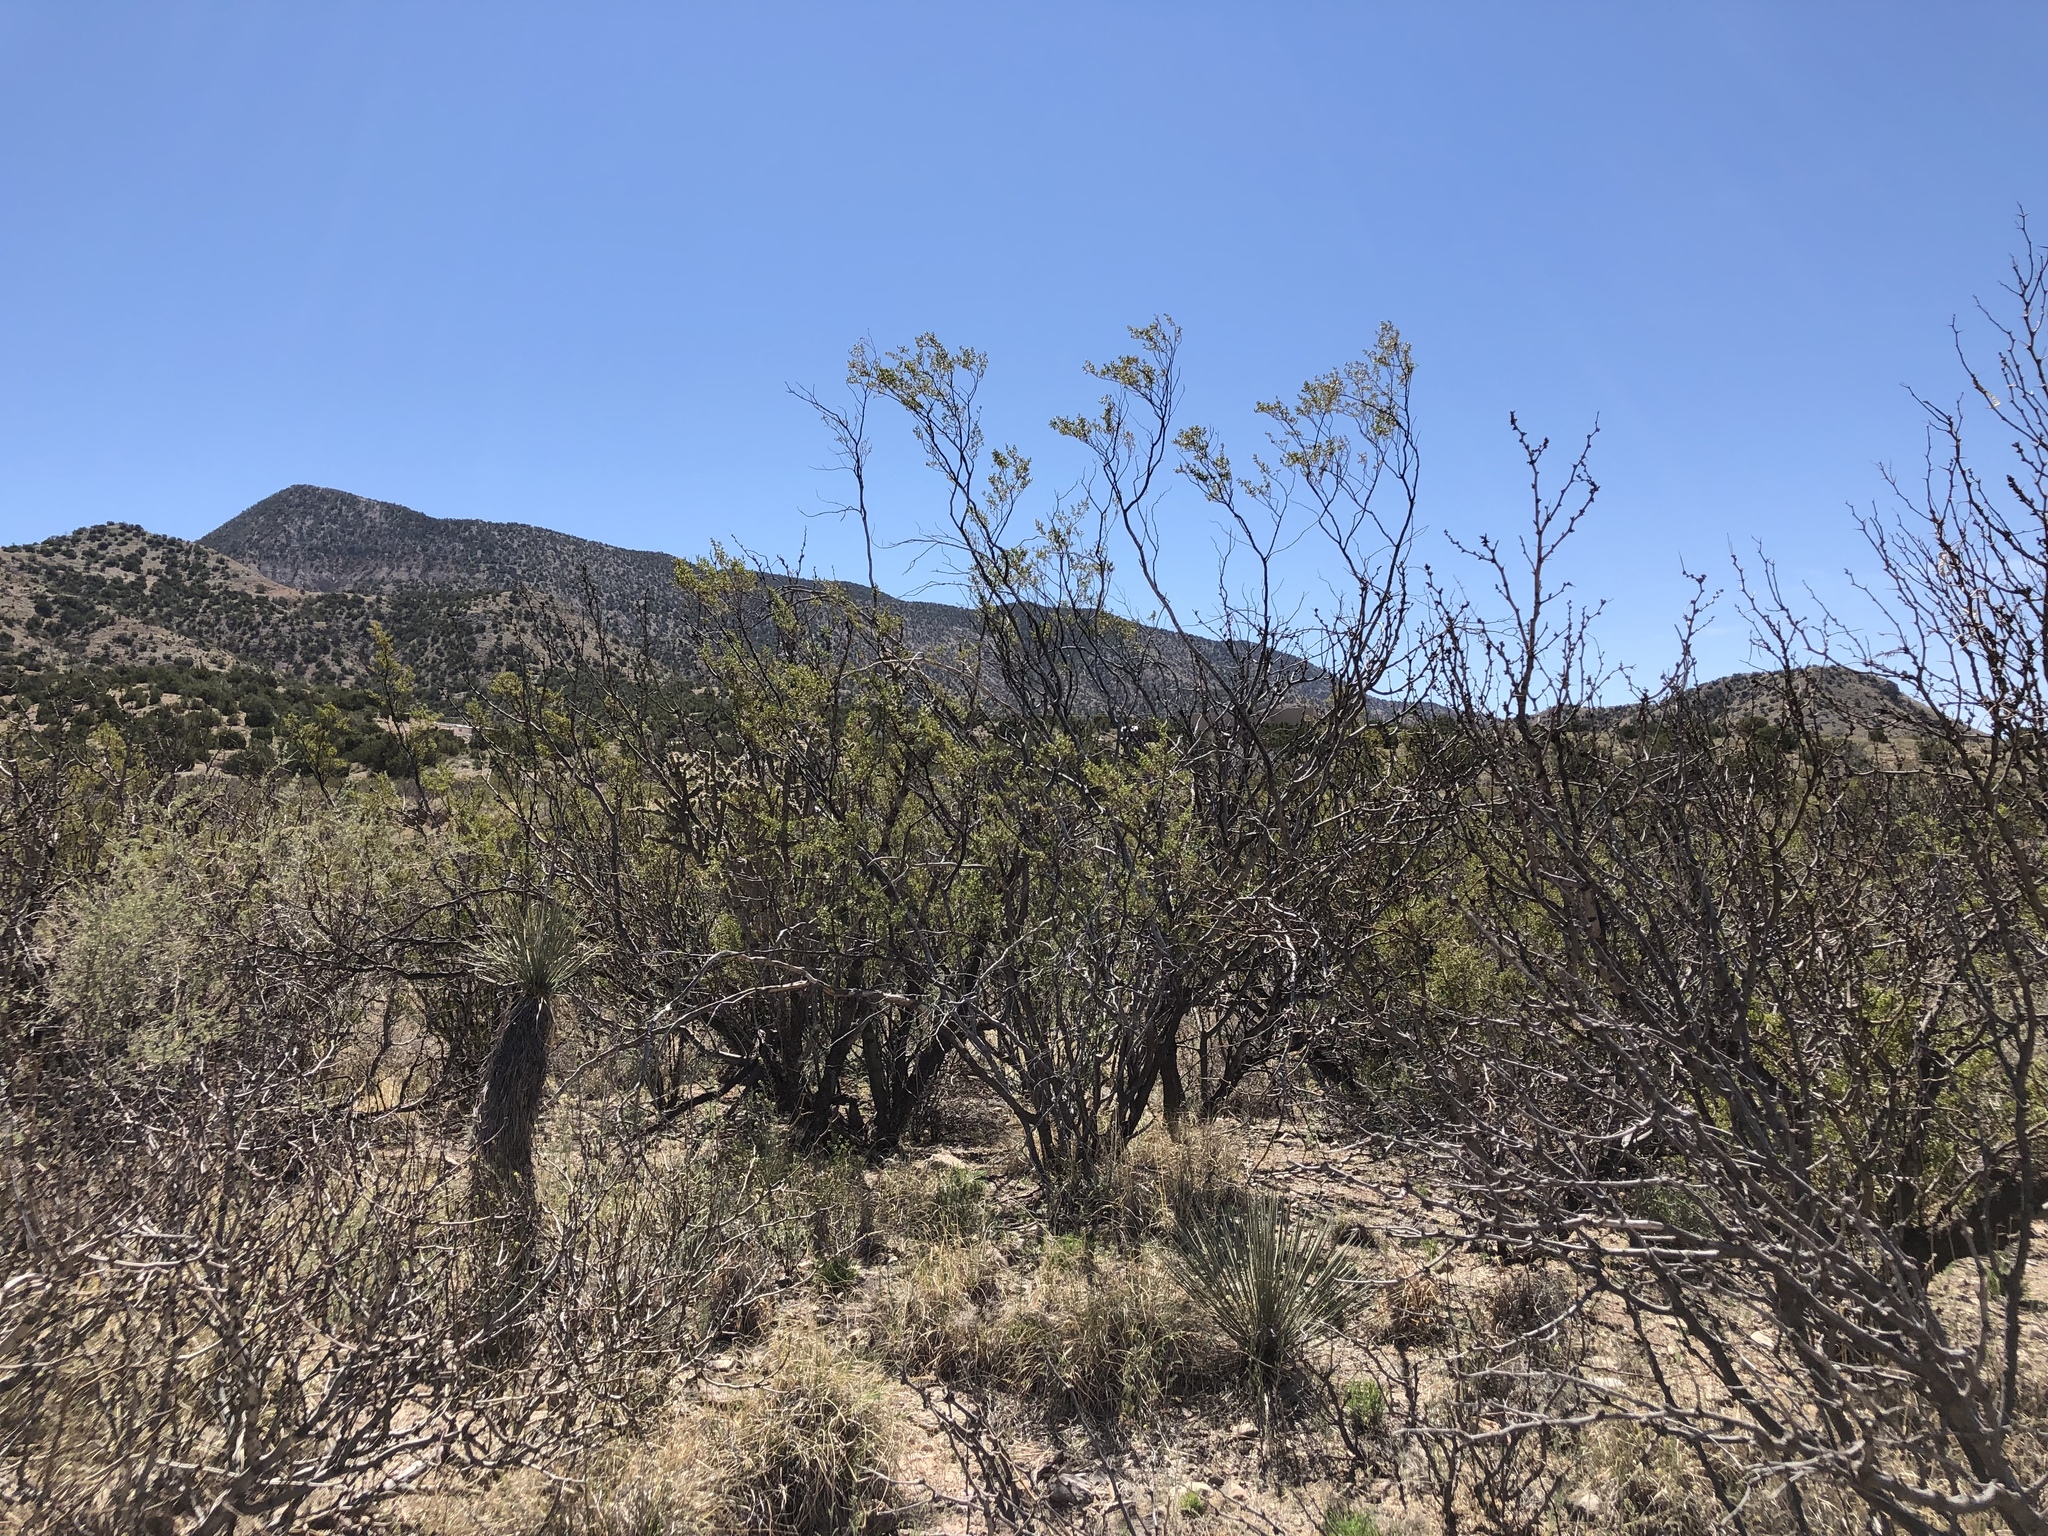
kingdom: Plantae
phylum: Tracheophyta
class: Magnoliopsida
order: Zygophyllales
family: Zygophyllaceae
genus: Larrea
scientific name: Larrea tridentata
